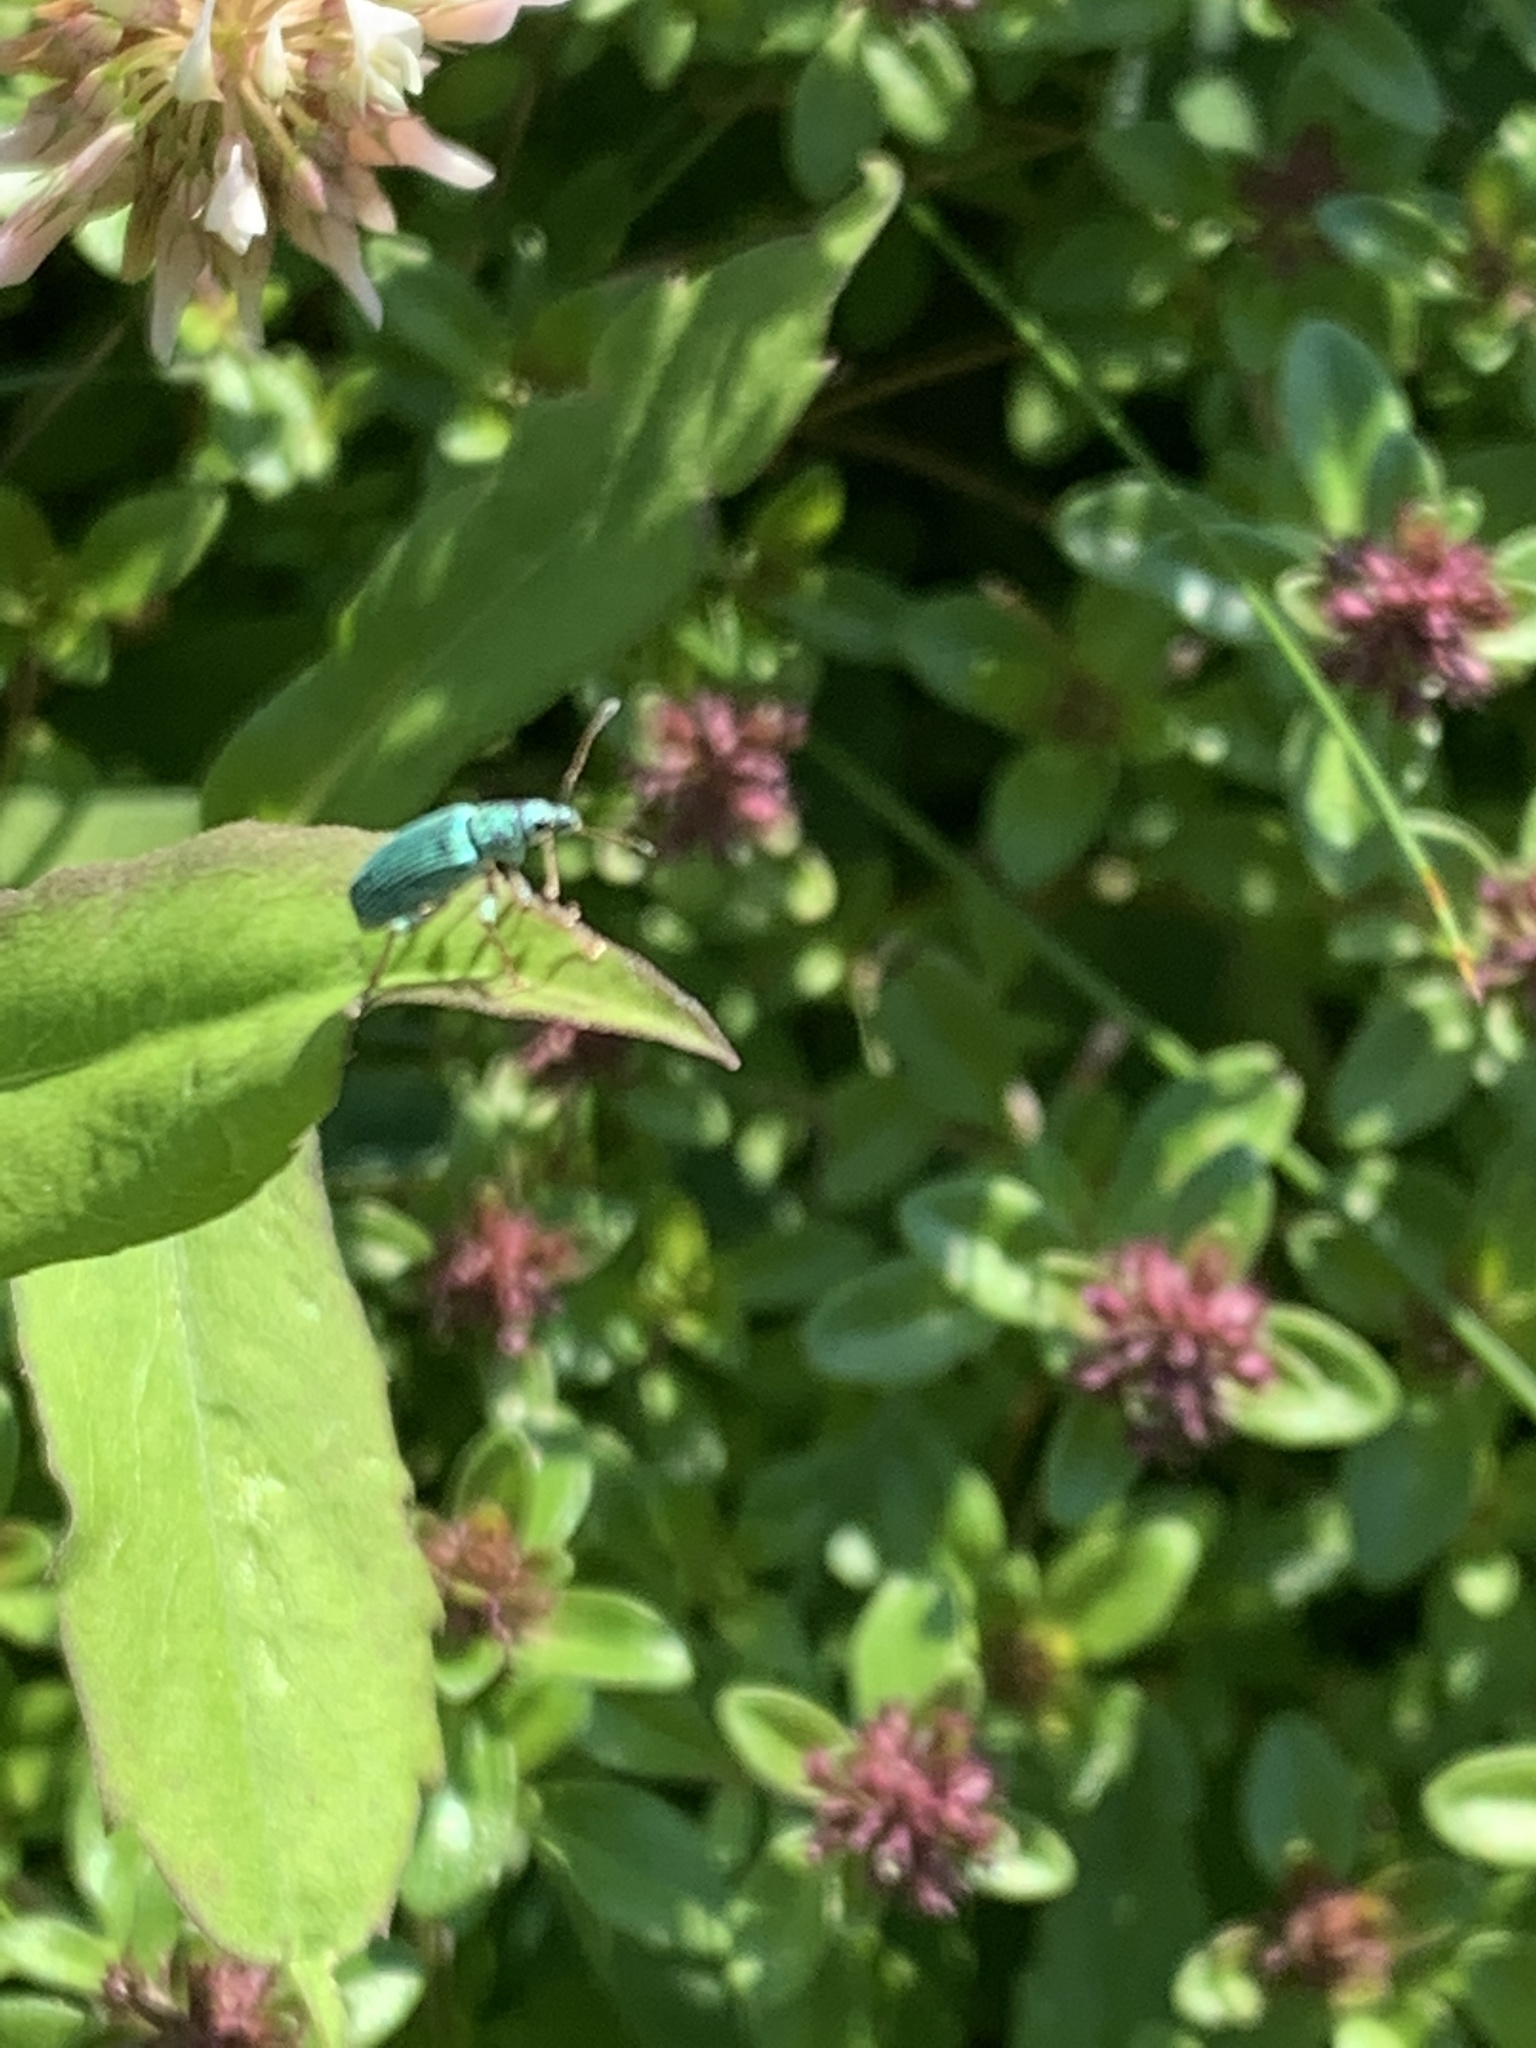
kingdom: Animalia
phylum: Arthropoda
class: Insecta
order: Coleoptera
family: Curculionidae
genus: Polydrusus
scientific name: Polydrusus formosus
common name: Weevil
